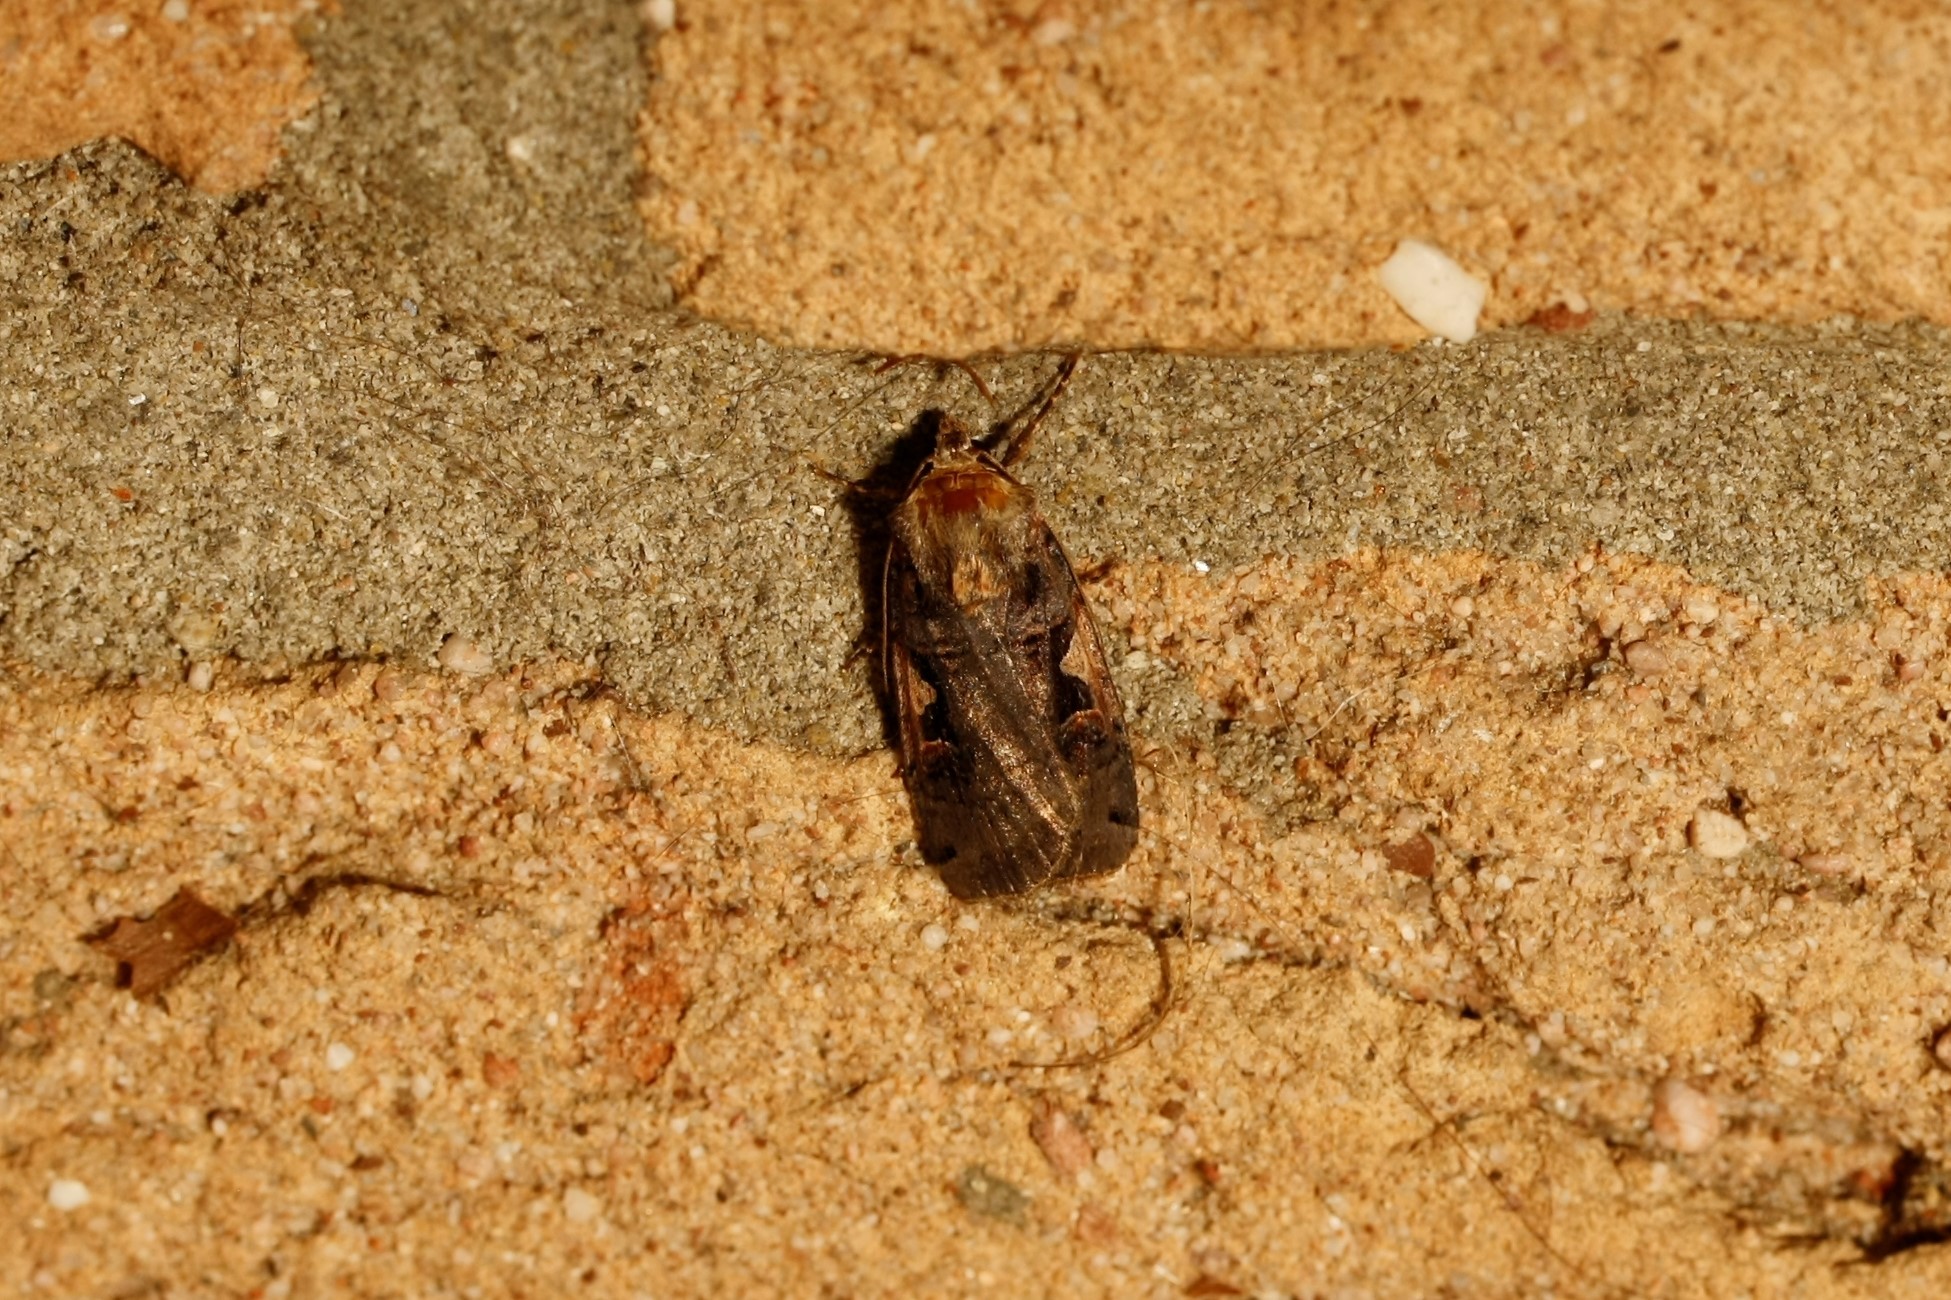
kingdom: Animalia
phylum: Arthropoda
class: Insecta
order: Lepidoptera
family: Noctuidae
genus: Xestia
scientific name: Xestia c-nigrum
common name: Setaceous hebrew character
